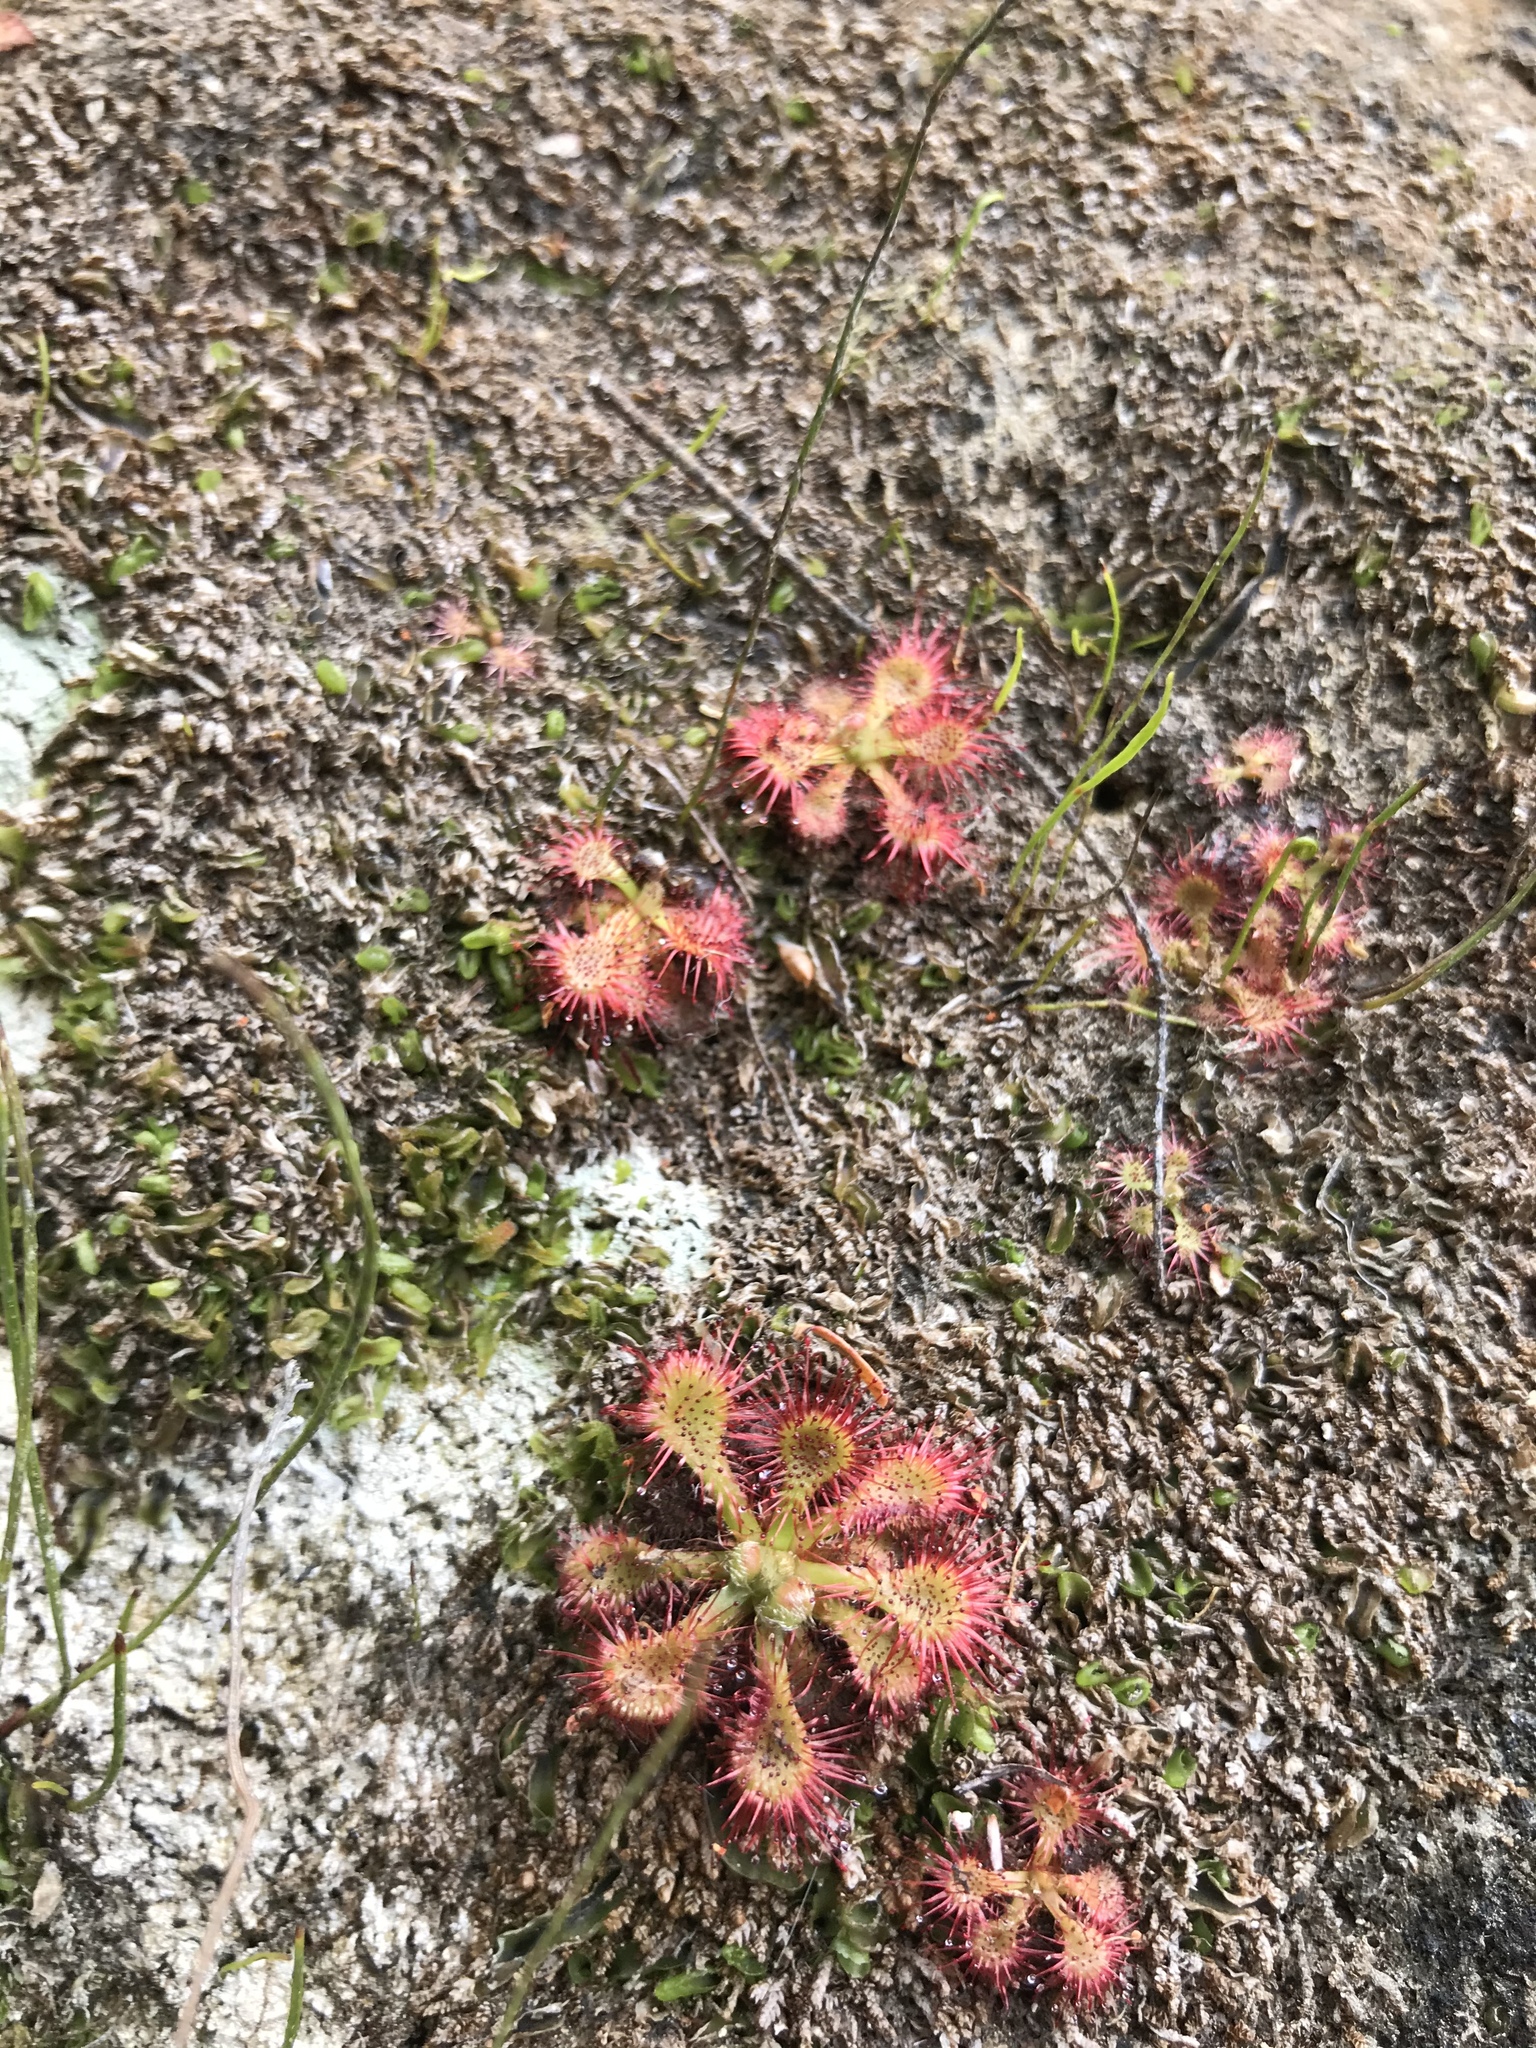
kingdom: Plantae
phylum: Tracheophyta
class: Magnoliopsida
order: Caryophyllales
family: Droseraceae
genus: Drosera
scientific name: Drosera spatulata
